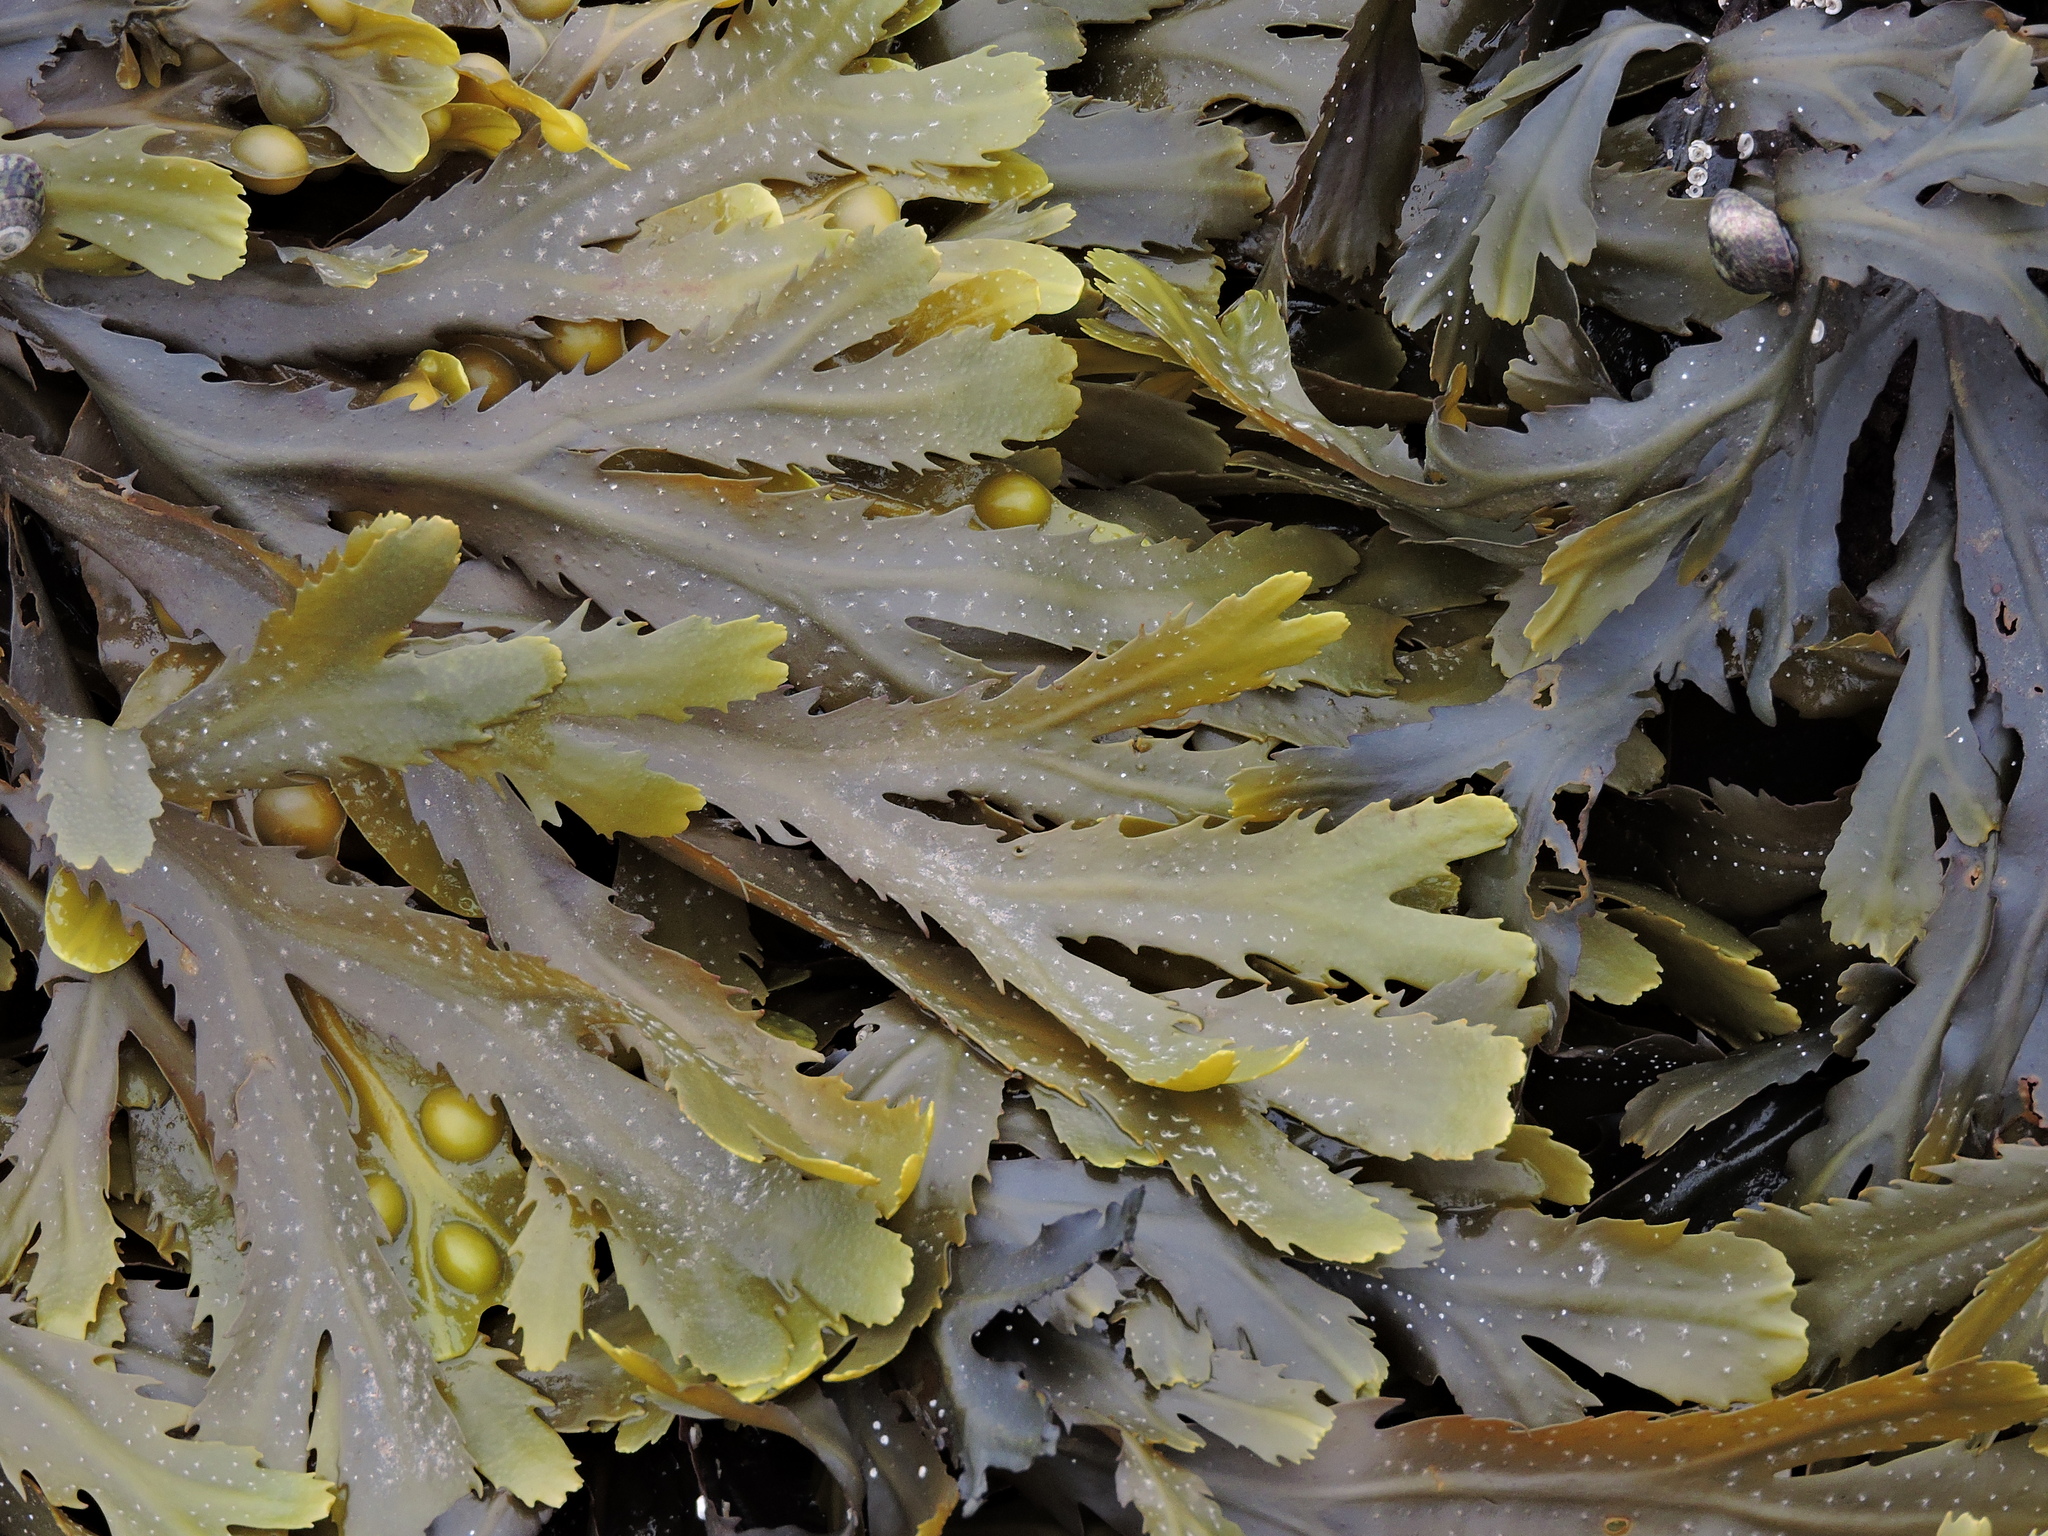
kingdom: Chromista
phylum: Ochrophyta
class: Phaeophyceae
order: Fucales
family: Fucaceae
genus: Fucus
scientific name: Fucus serratus
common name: Toothed wrack
